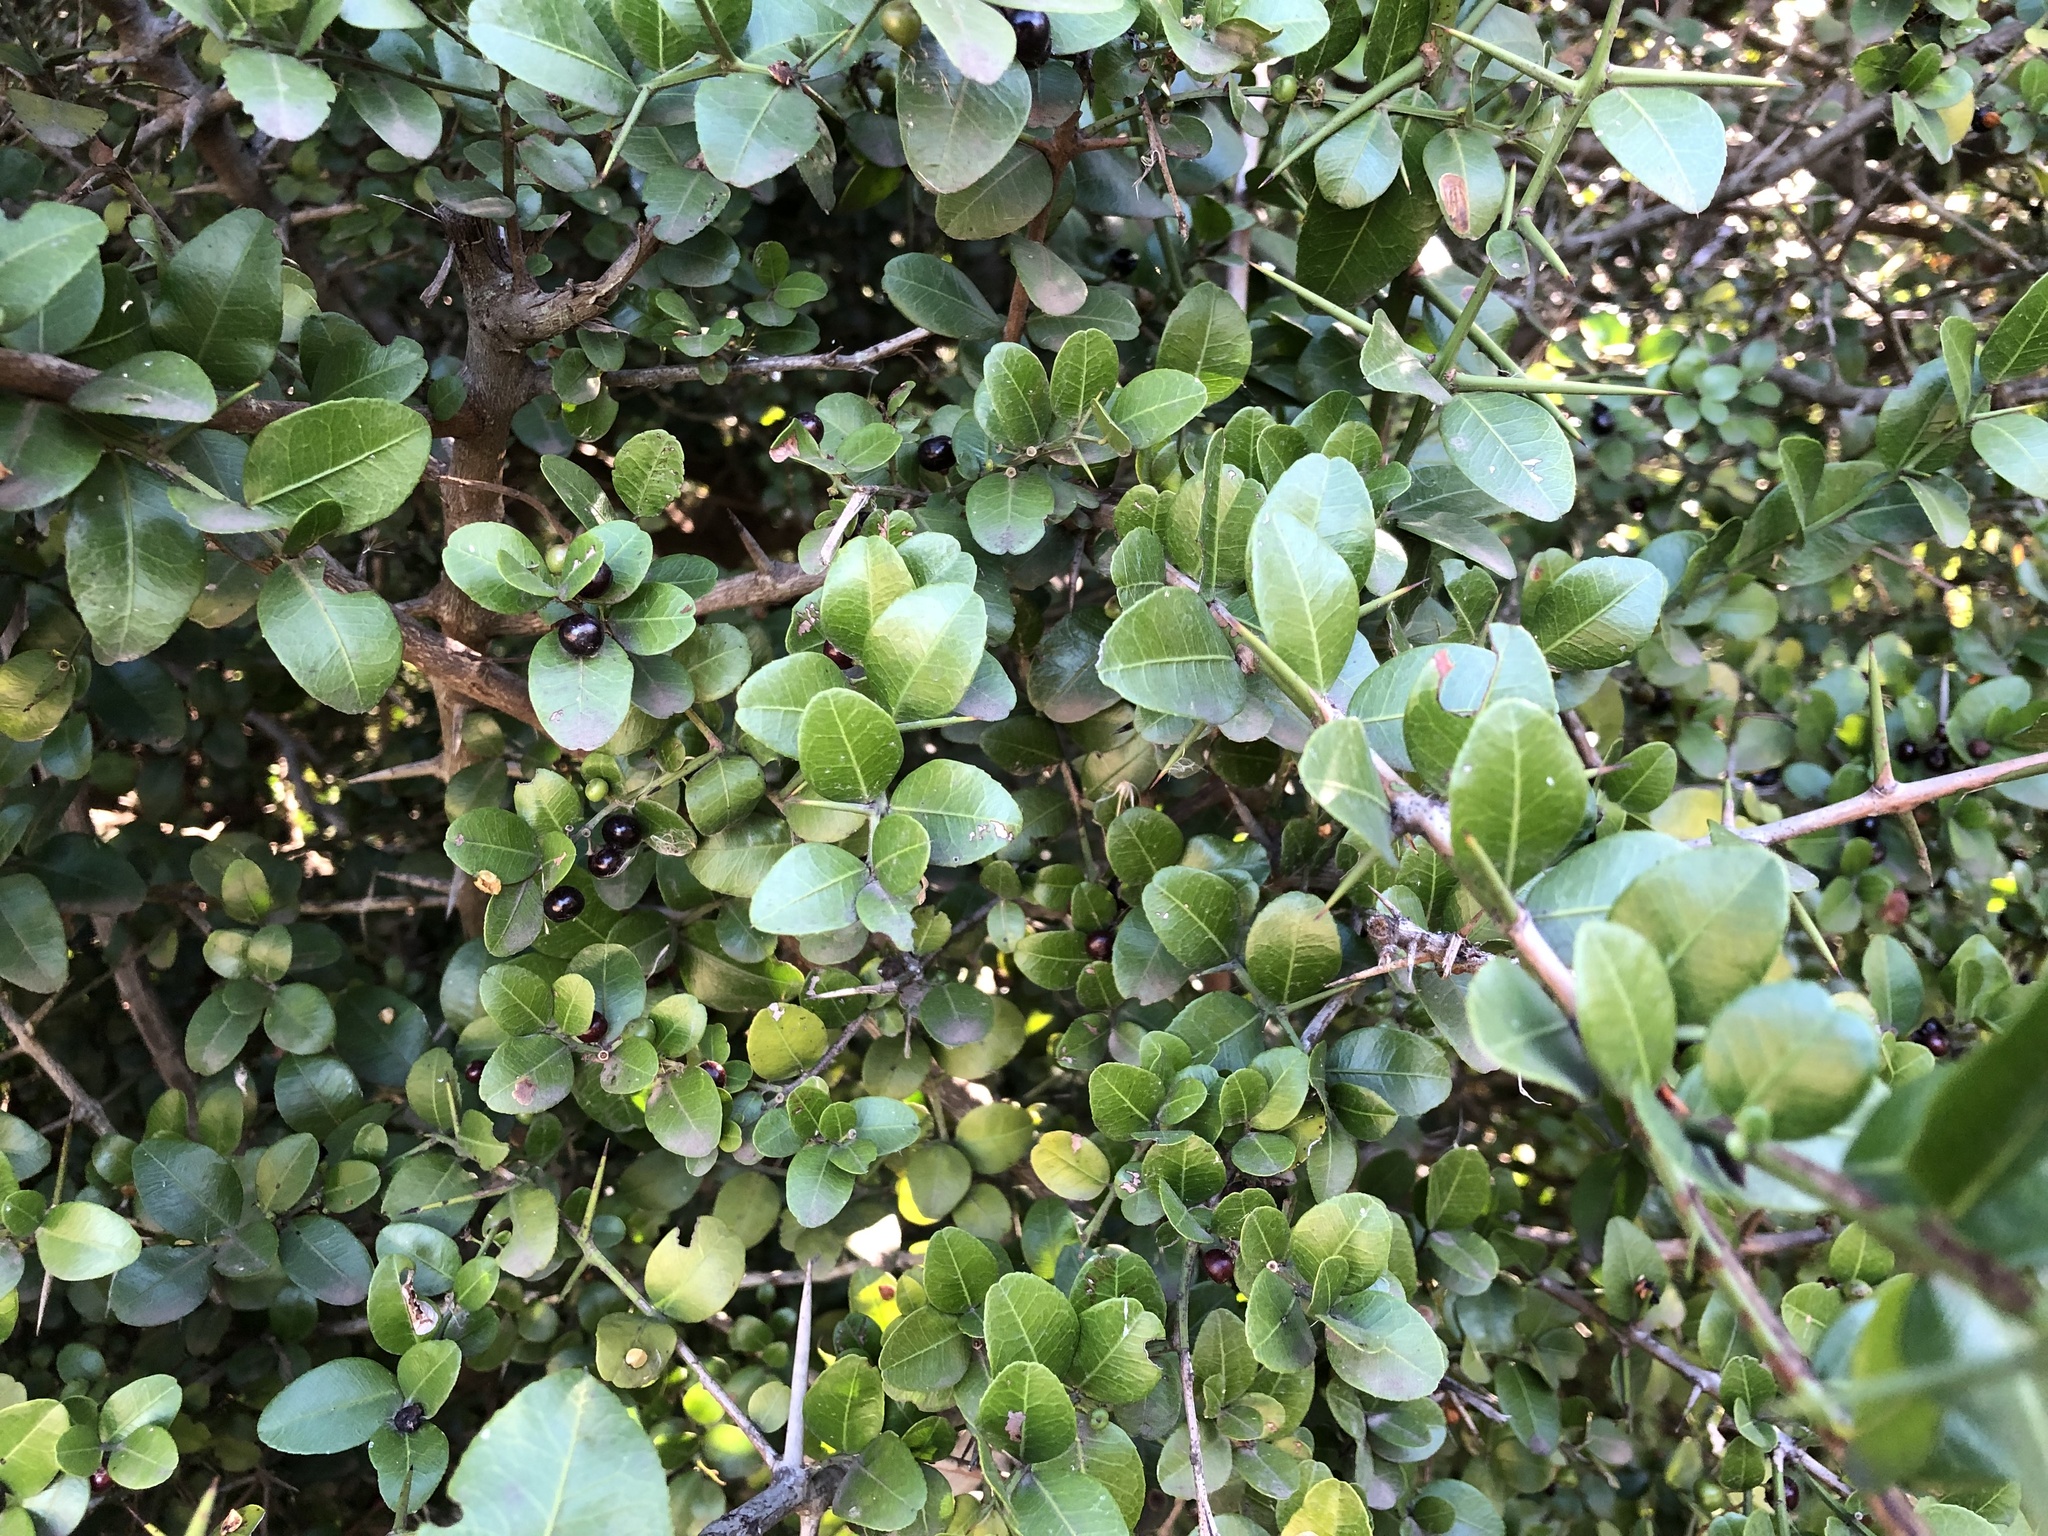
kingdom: Plantae
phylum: Tracheophyta
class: Magnoliopsida
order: Rosales
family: Rhamnaceae
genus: Scutia
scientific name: Scutia buxifolia
